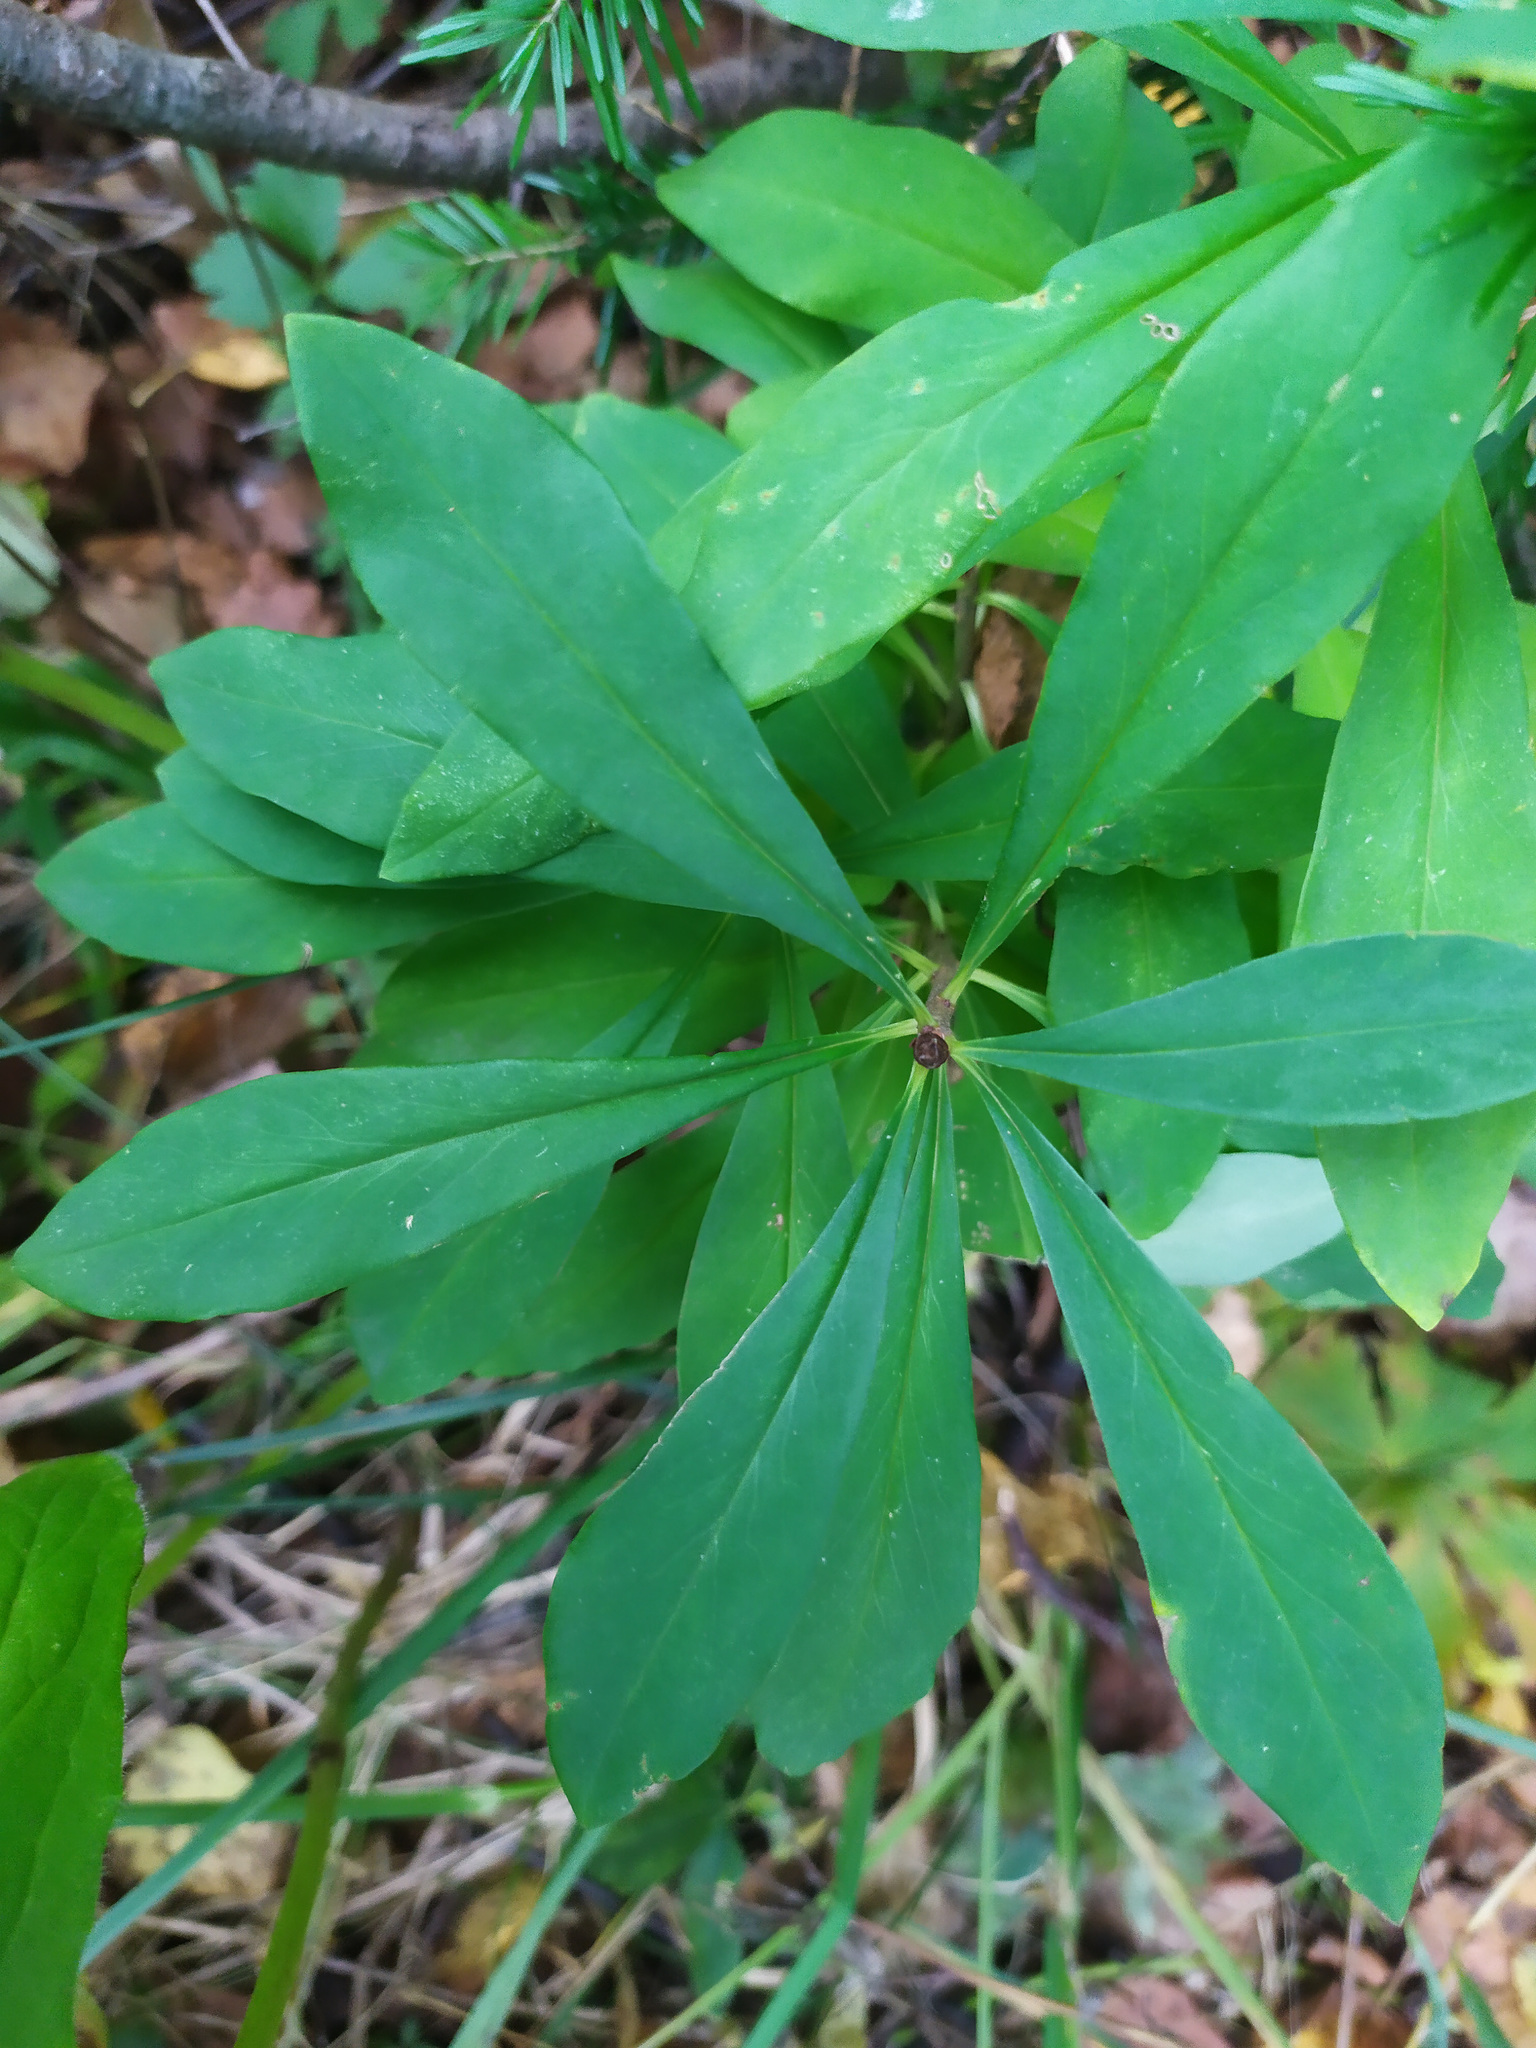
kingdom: Plantae
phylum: Tracheophyta
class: Magnoliopsida
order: Malvales
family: Thymelaeaceae
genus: Daphne
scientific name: Daphne mezereum
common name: Mezereon
